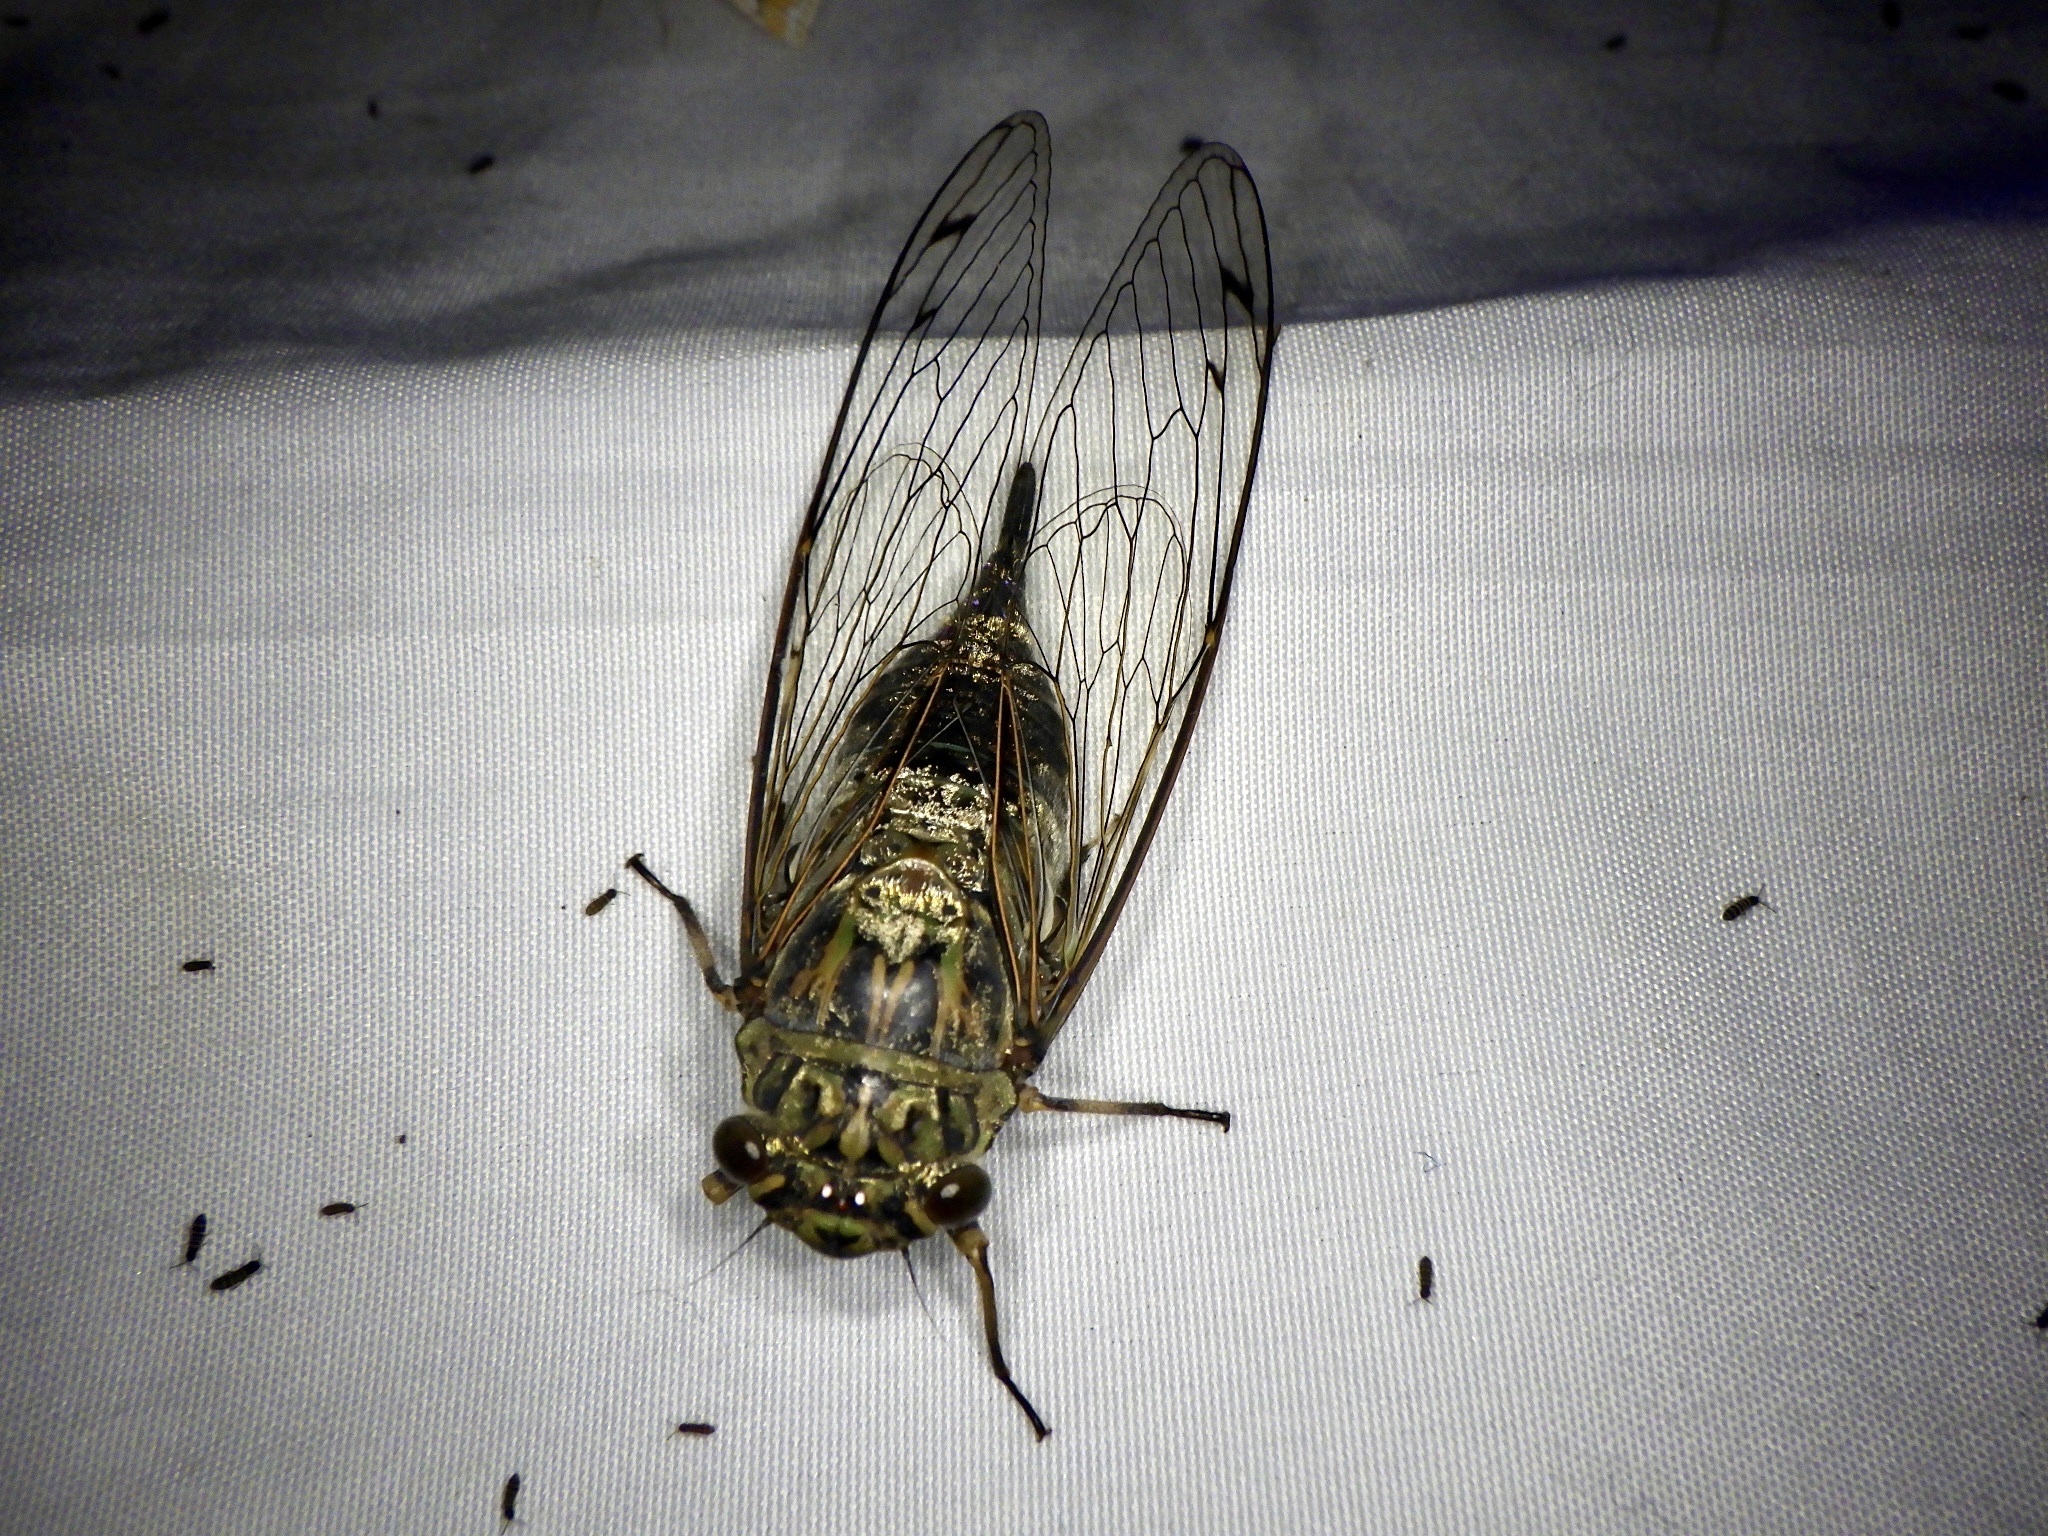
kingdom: Animalia
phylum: Arthropoda
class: Insecta
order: Hemiptera
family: Cicadidae
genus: Meimuna
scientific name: Meimuna opalifera
